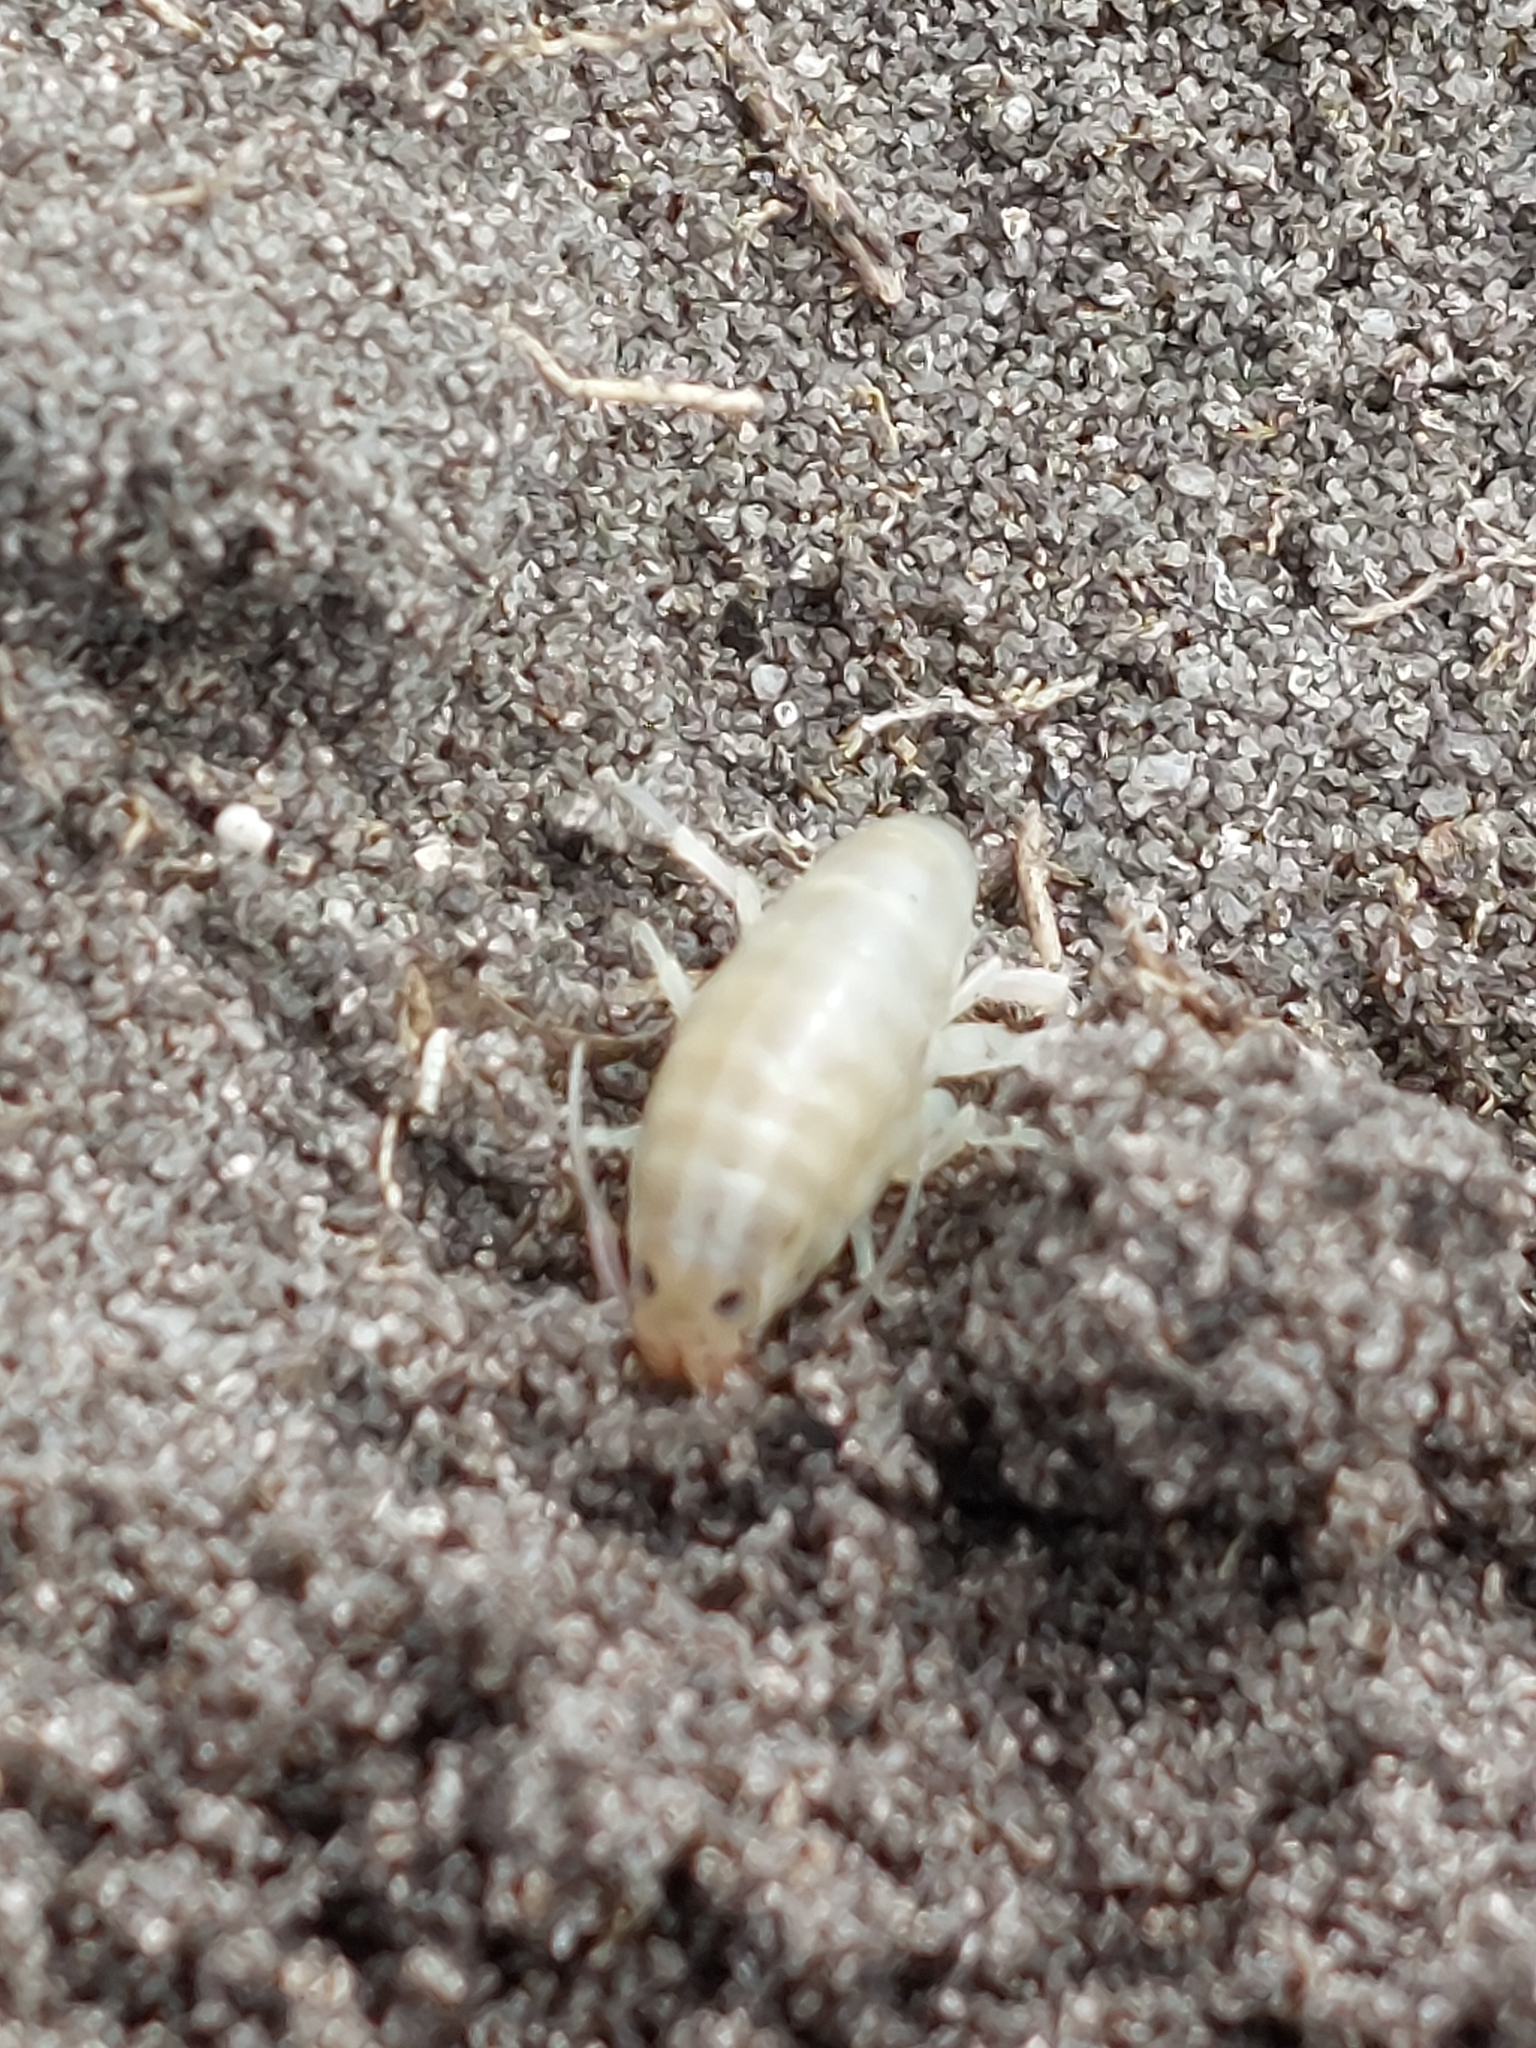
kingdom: Animalia
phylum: Arthropoda
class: Malacostraca
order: Amphipoda
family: Talitridae
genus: Capeorchestia
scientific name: Capeorchestia capensis
